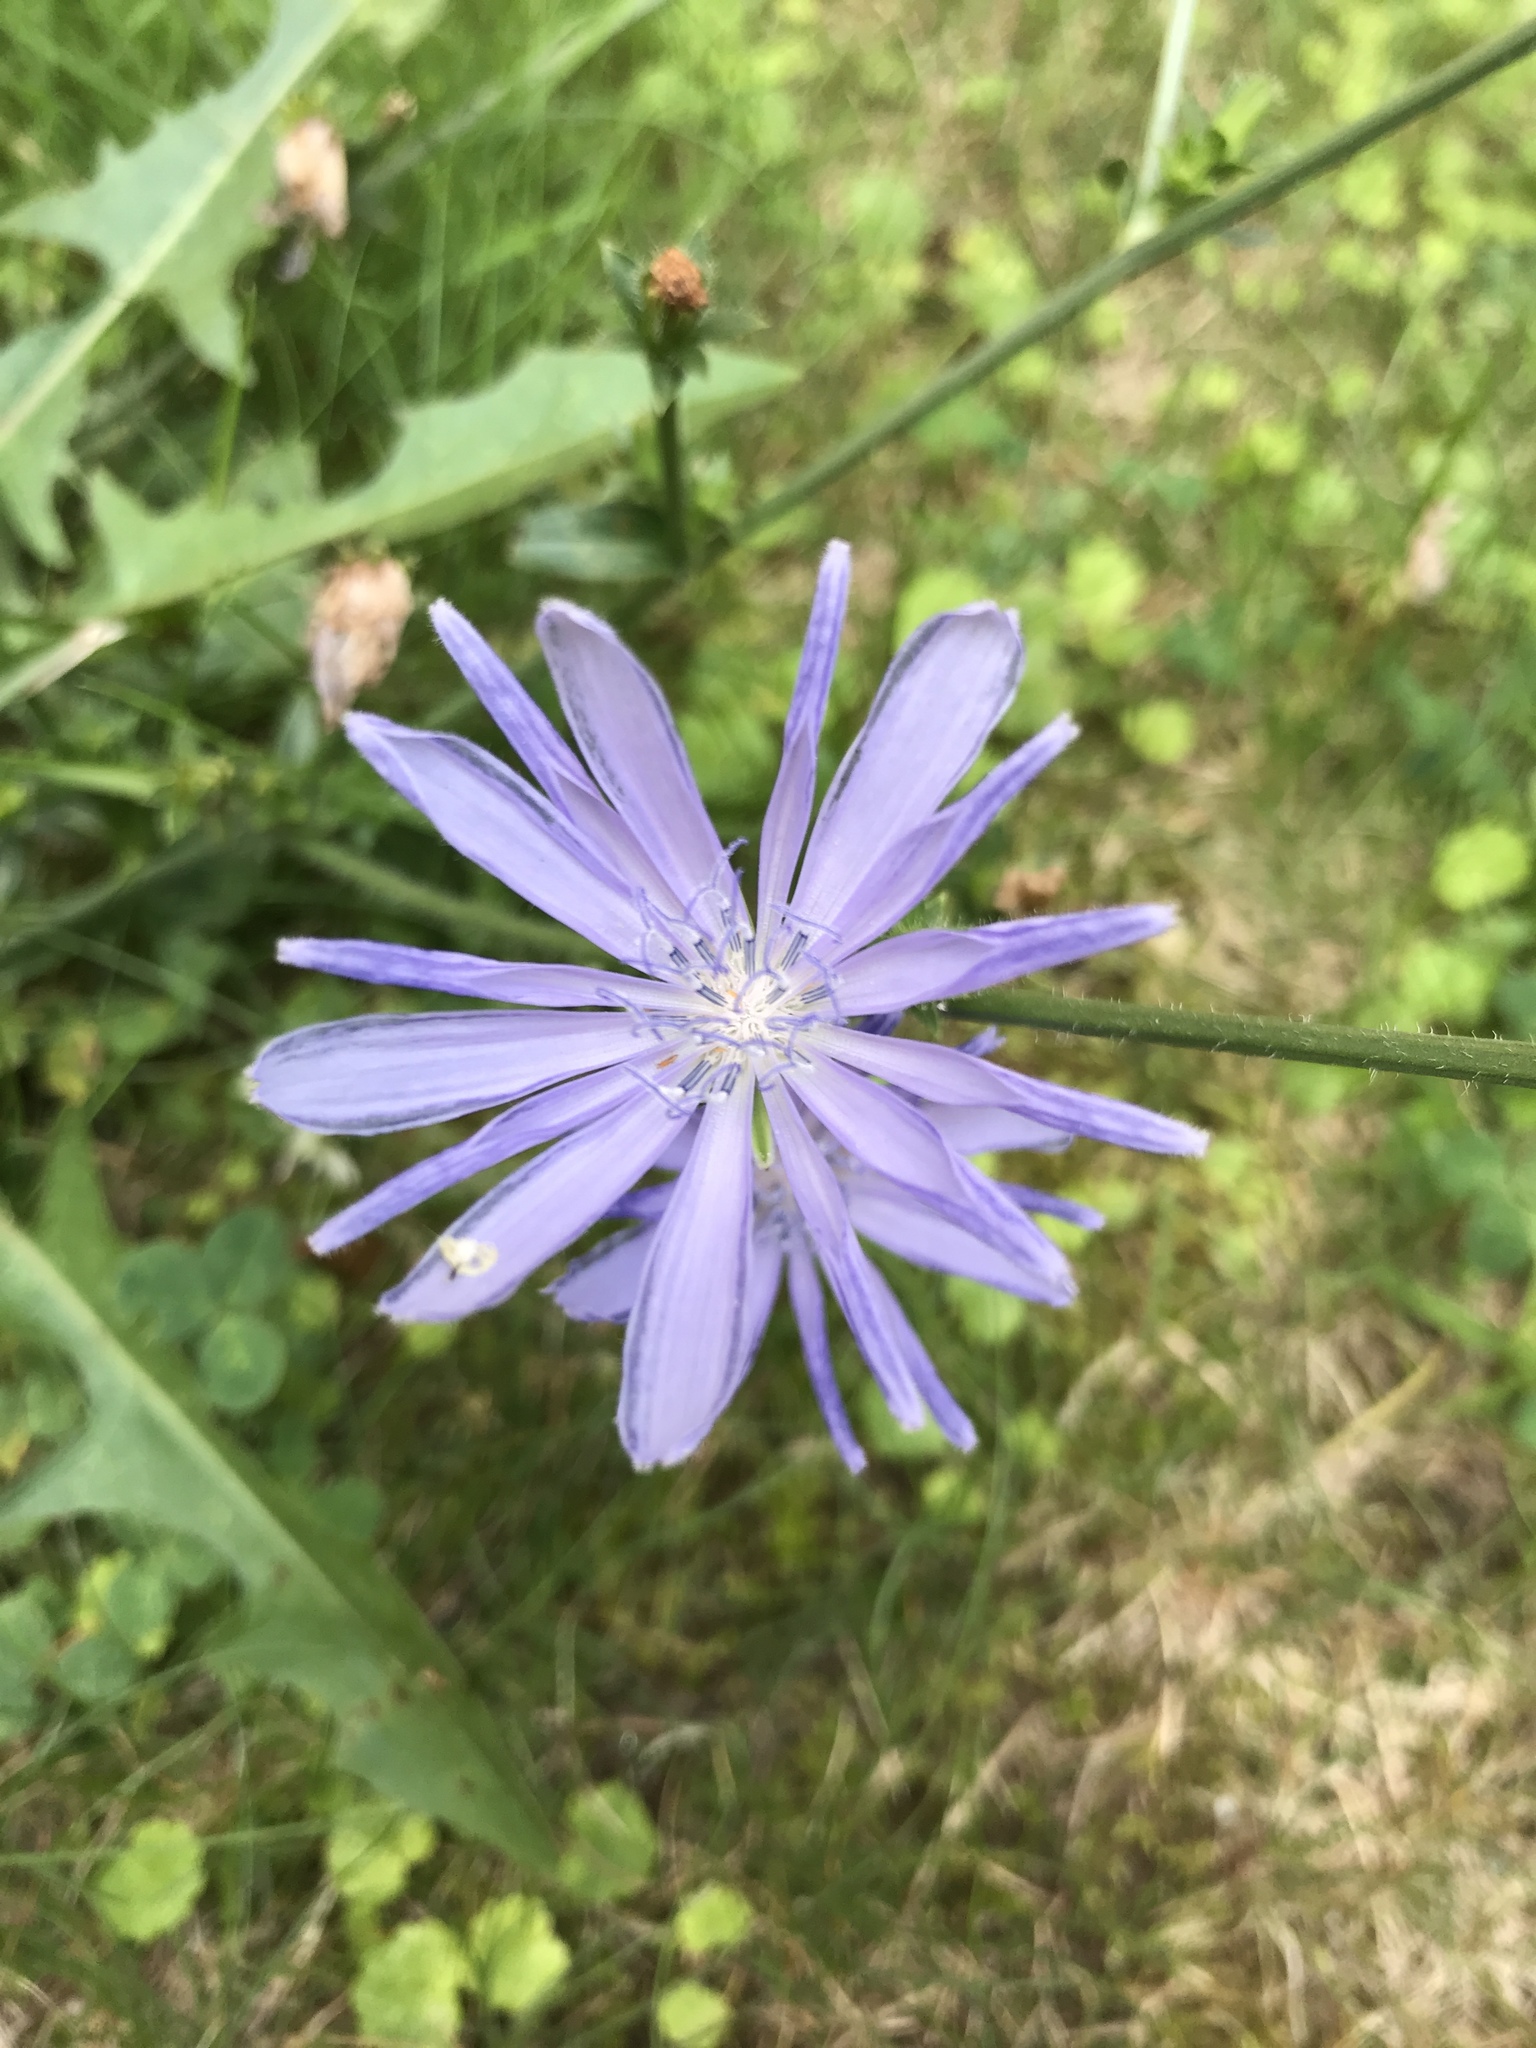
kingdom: Plantae
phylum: Tracheophyta
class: Magnoliopsida
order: Asterales
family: Asteraceae
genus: Cichorium
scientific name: Cichorium intybus
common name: Chicory
